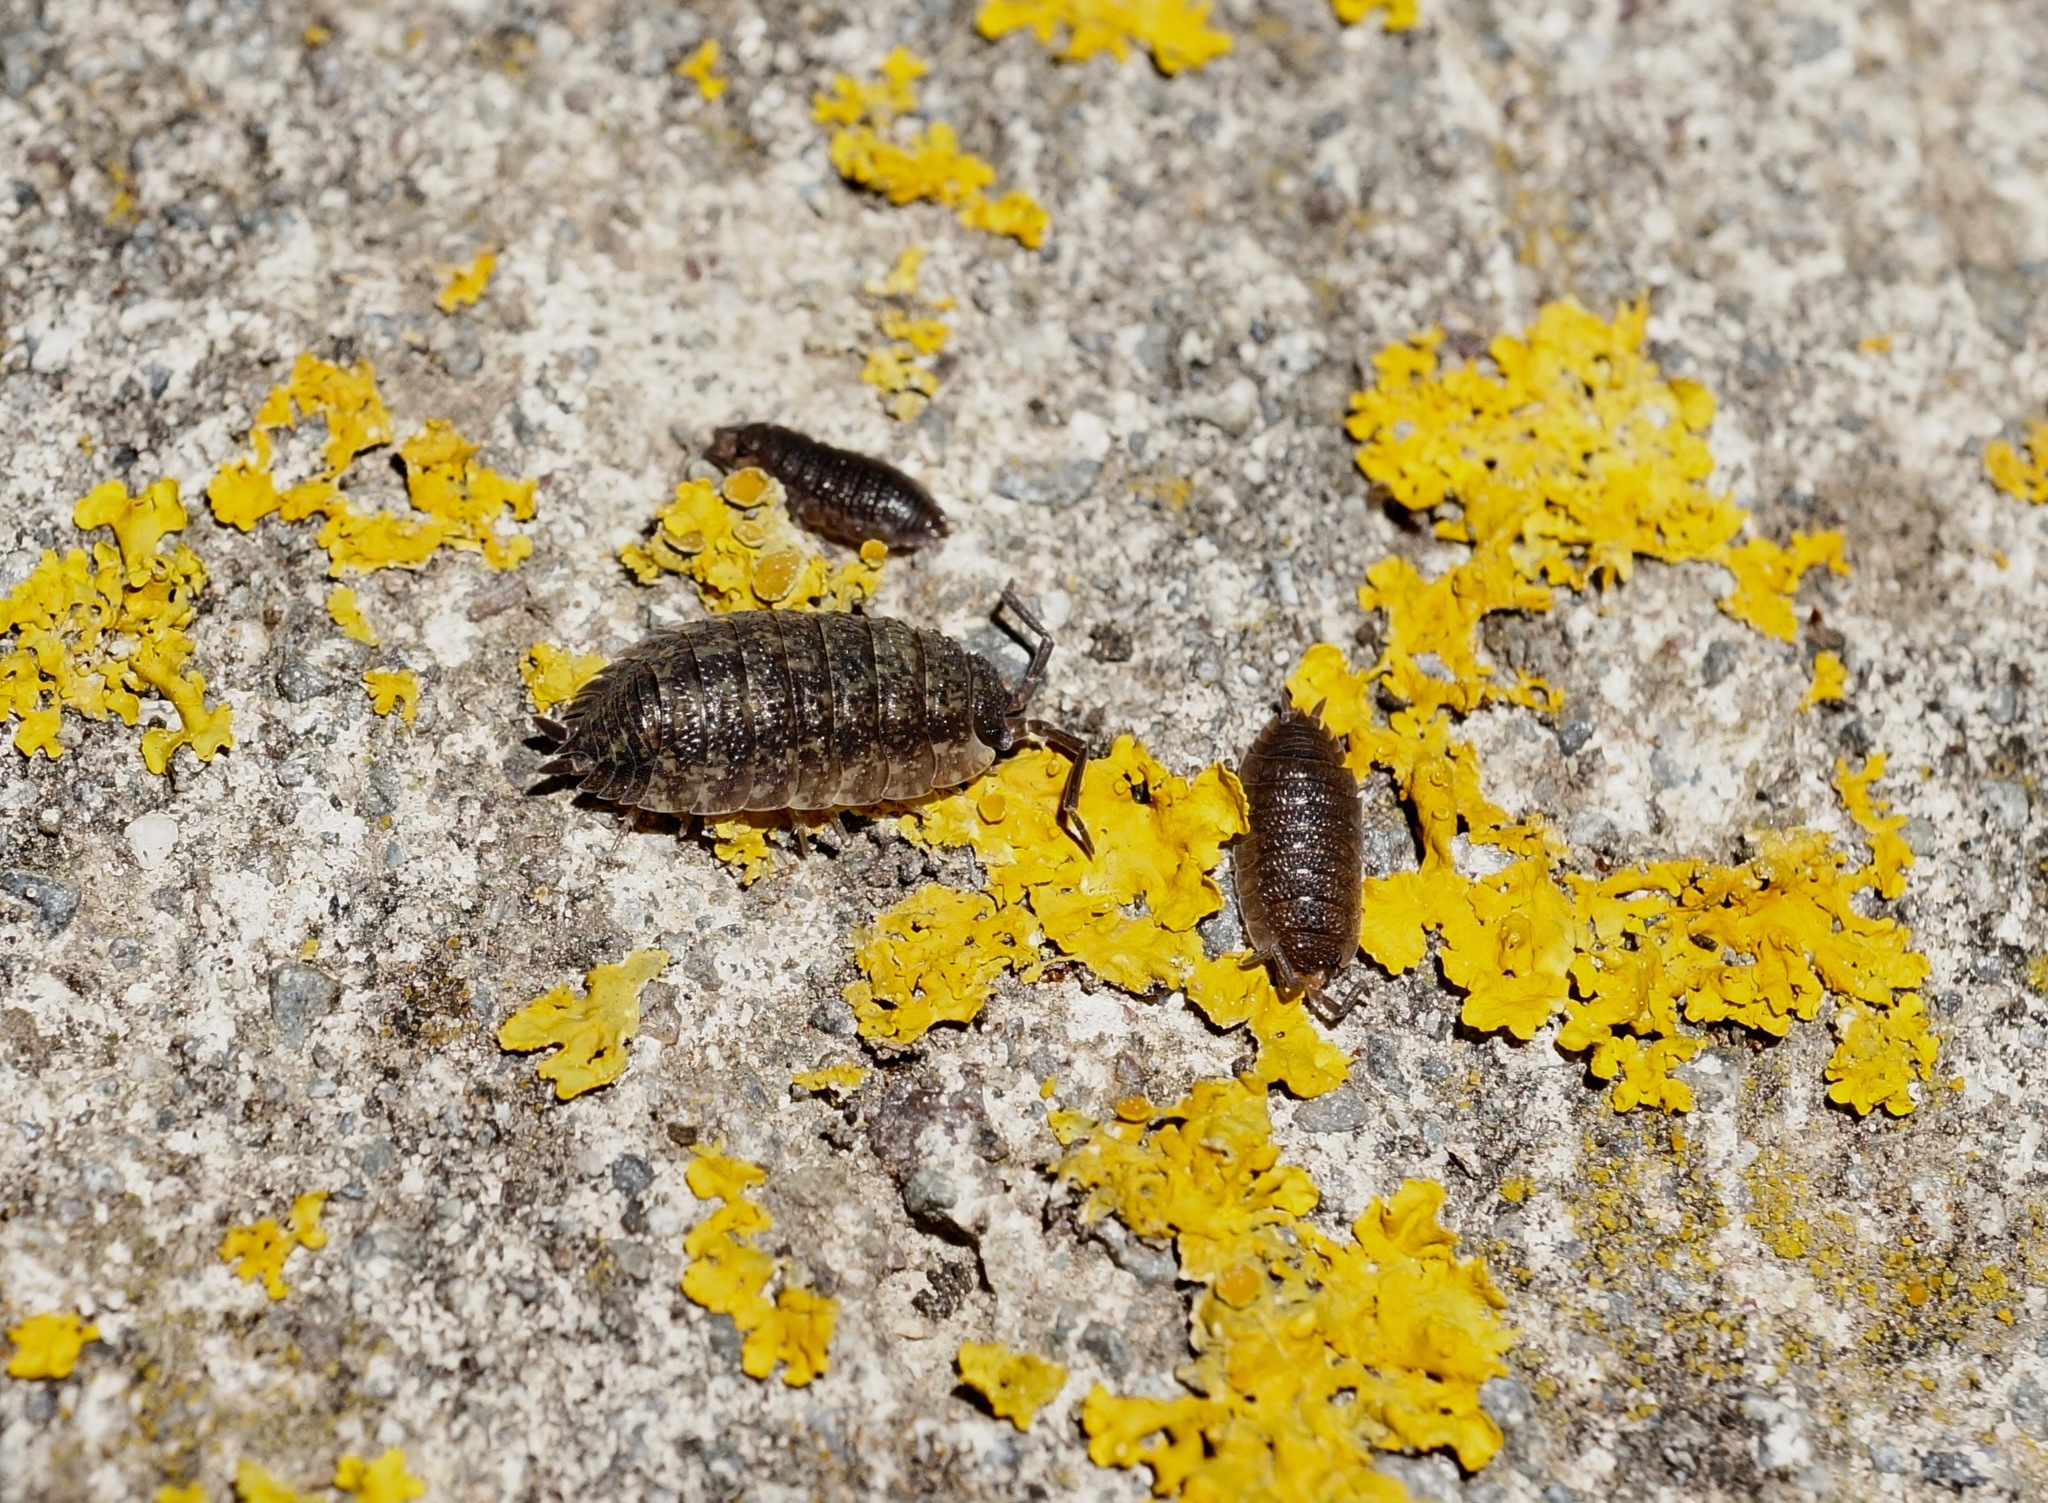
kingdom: Animalia
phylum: Arthropoda
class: Malacostraca
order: Isopoda
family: Porcellionidae
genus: Porcellio
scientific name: Porcellio scaber
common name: Common rough woodlouse
